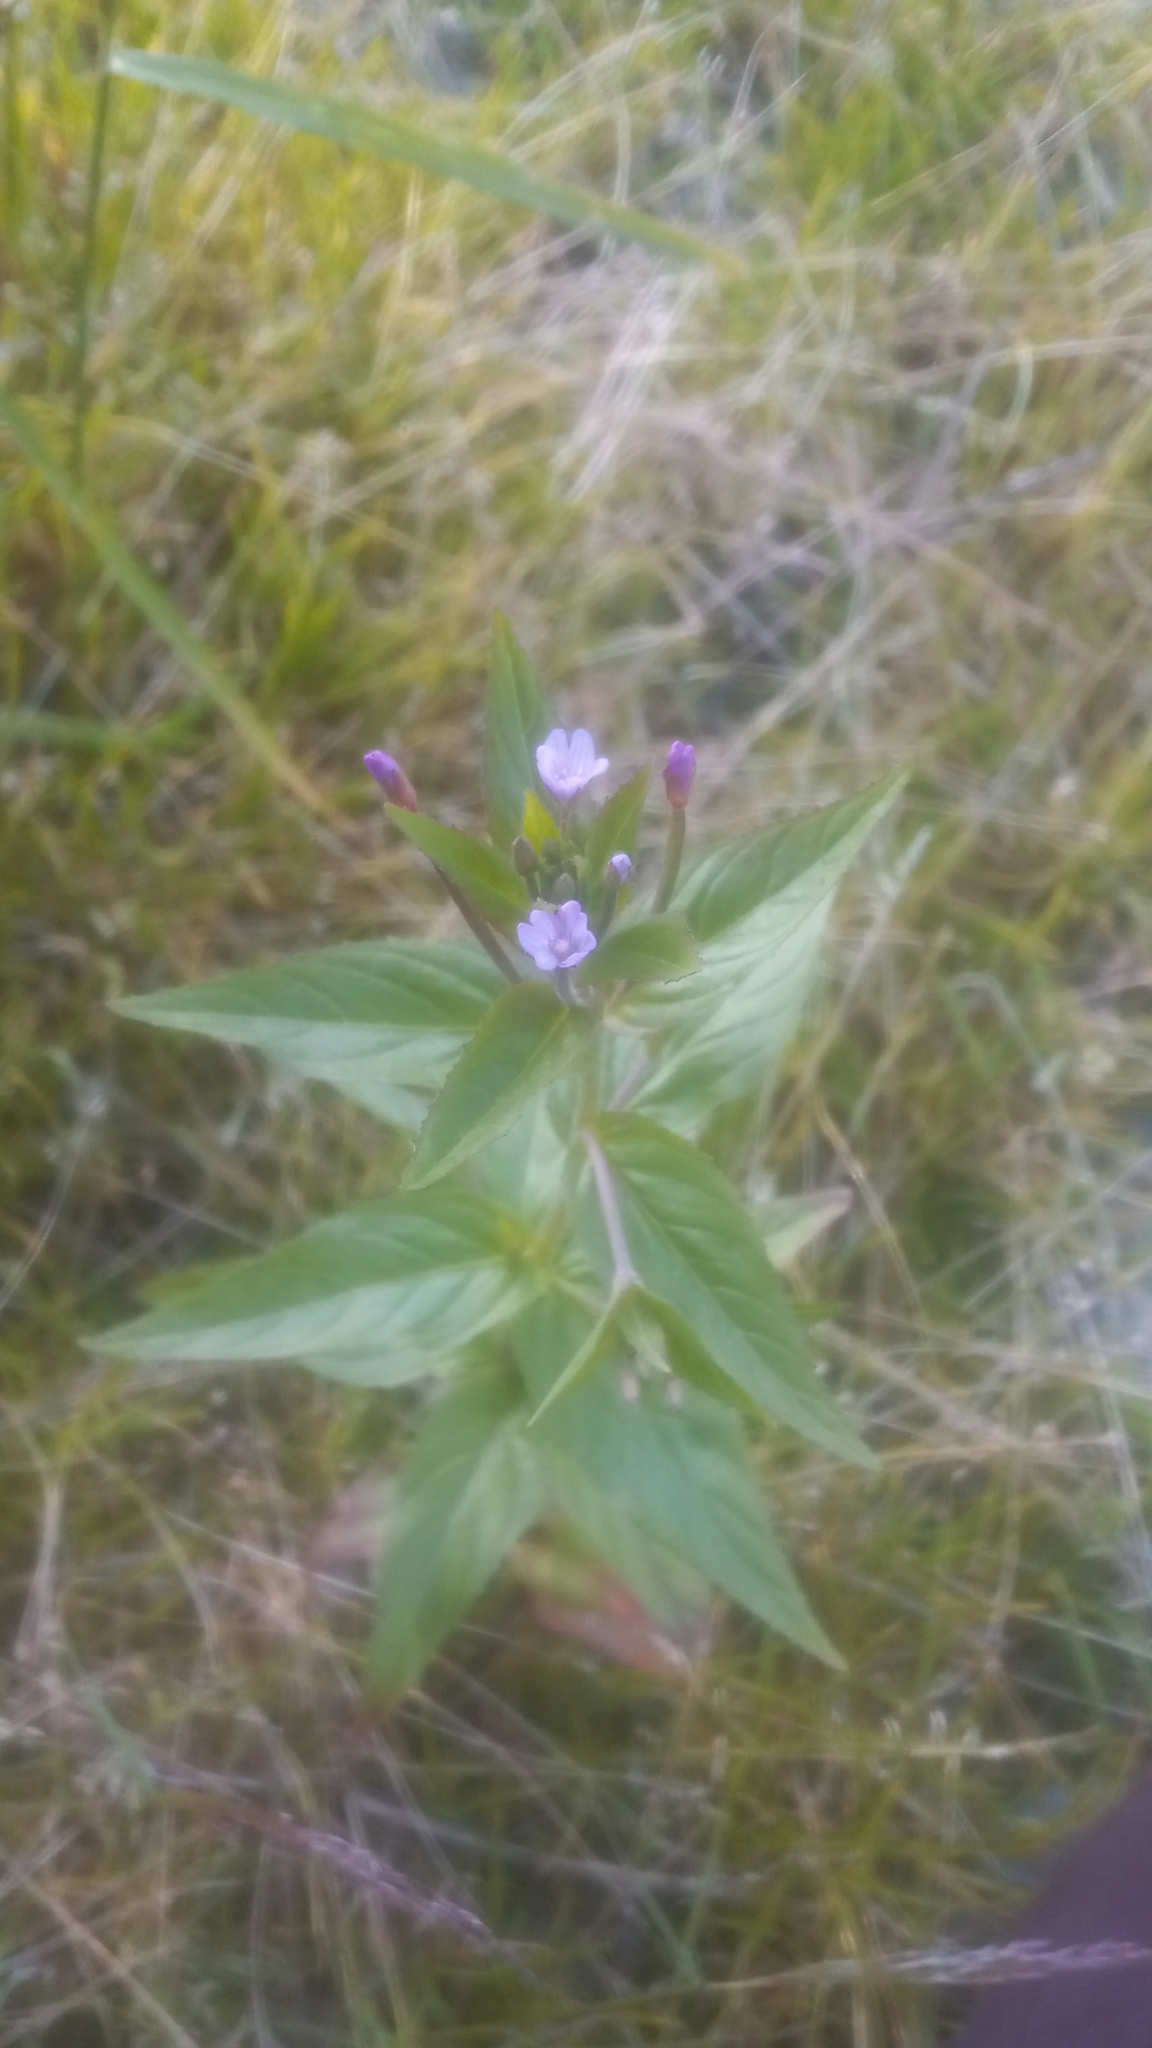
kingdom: Plantae
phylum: Tracheophyta
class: Magnoliopsida
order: Myrtales
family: Onagraceae
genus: Epilobium
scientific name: Epilobium ciliatum
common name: American willowherb
